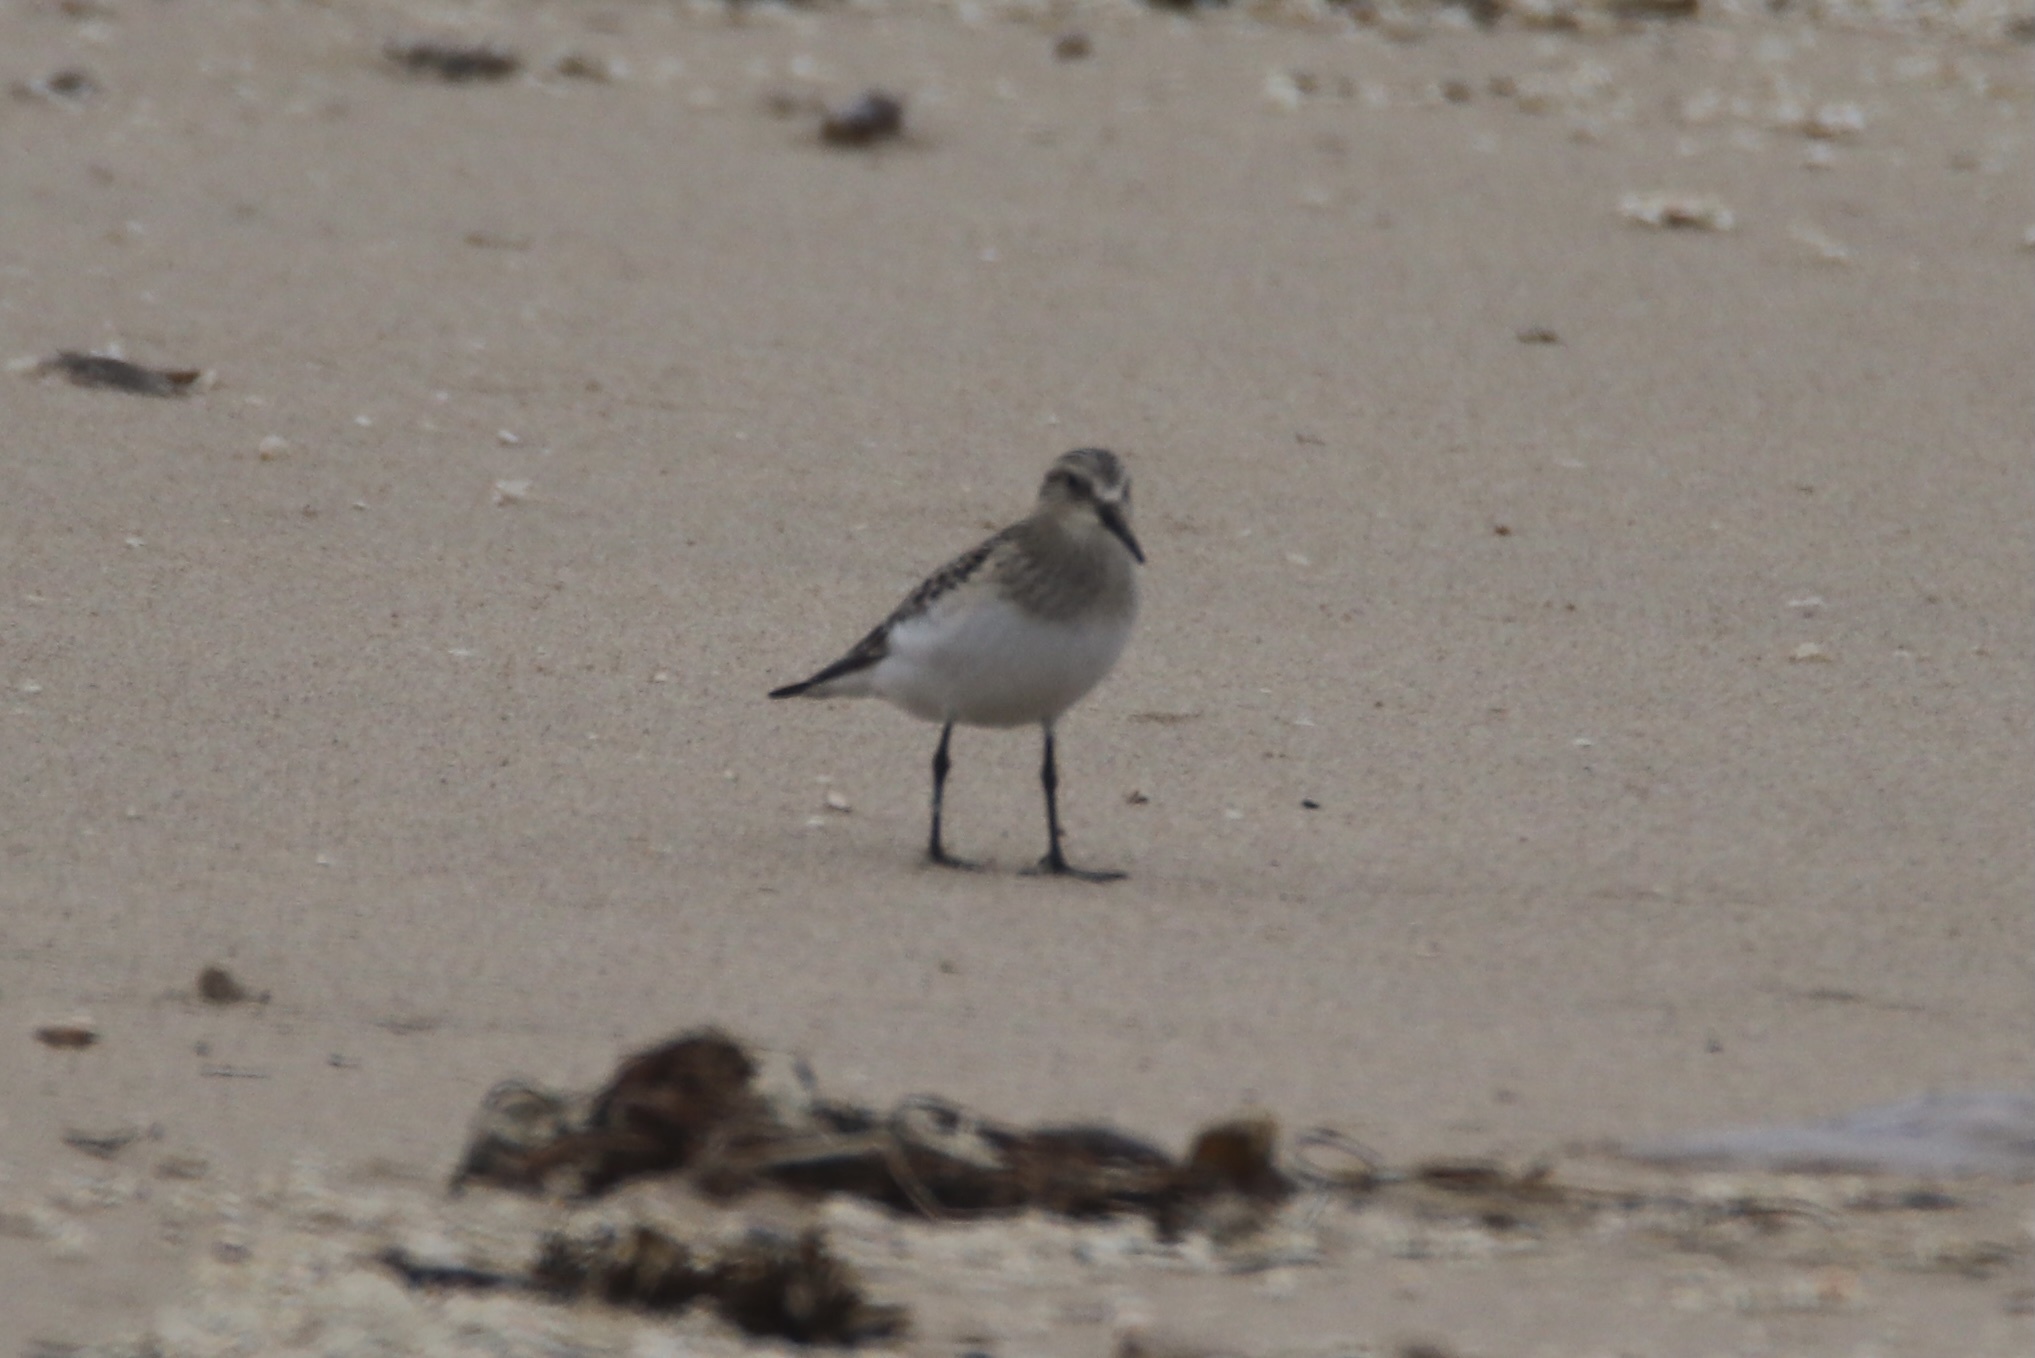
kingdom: Animalia
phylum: Chordata
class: Aves
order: Charadriiformes
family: Scolopacidae
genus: Calidris
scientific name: Calidris bairdii
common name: Baird's sandpiper
